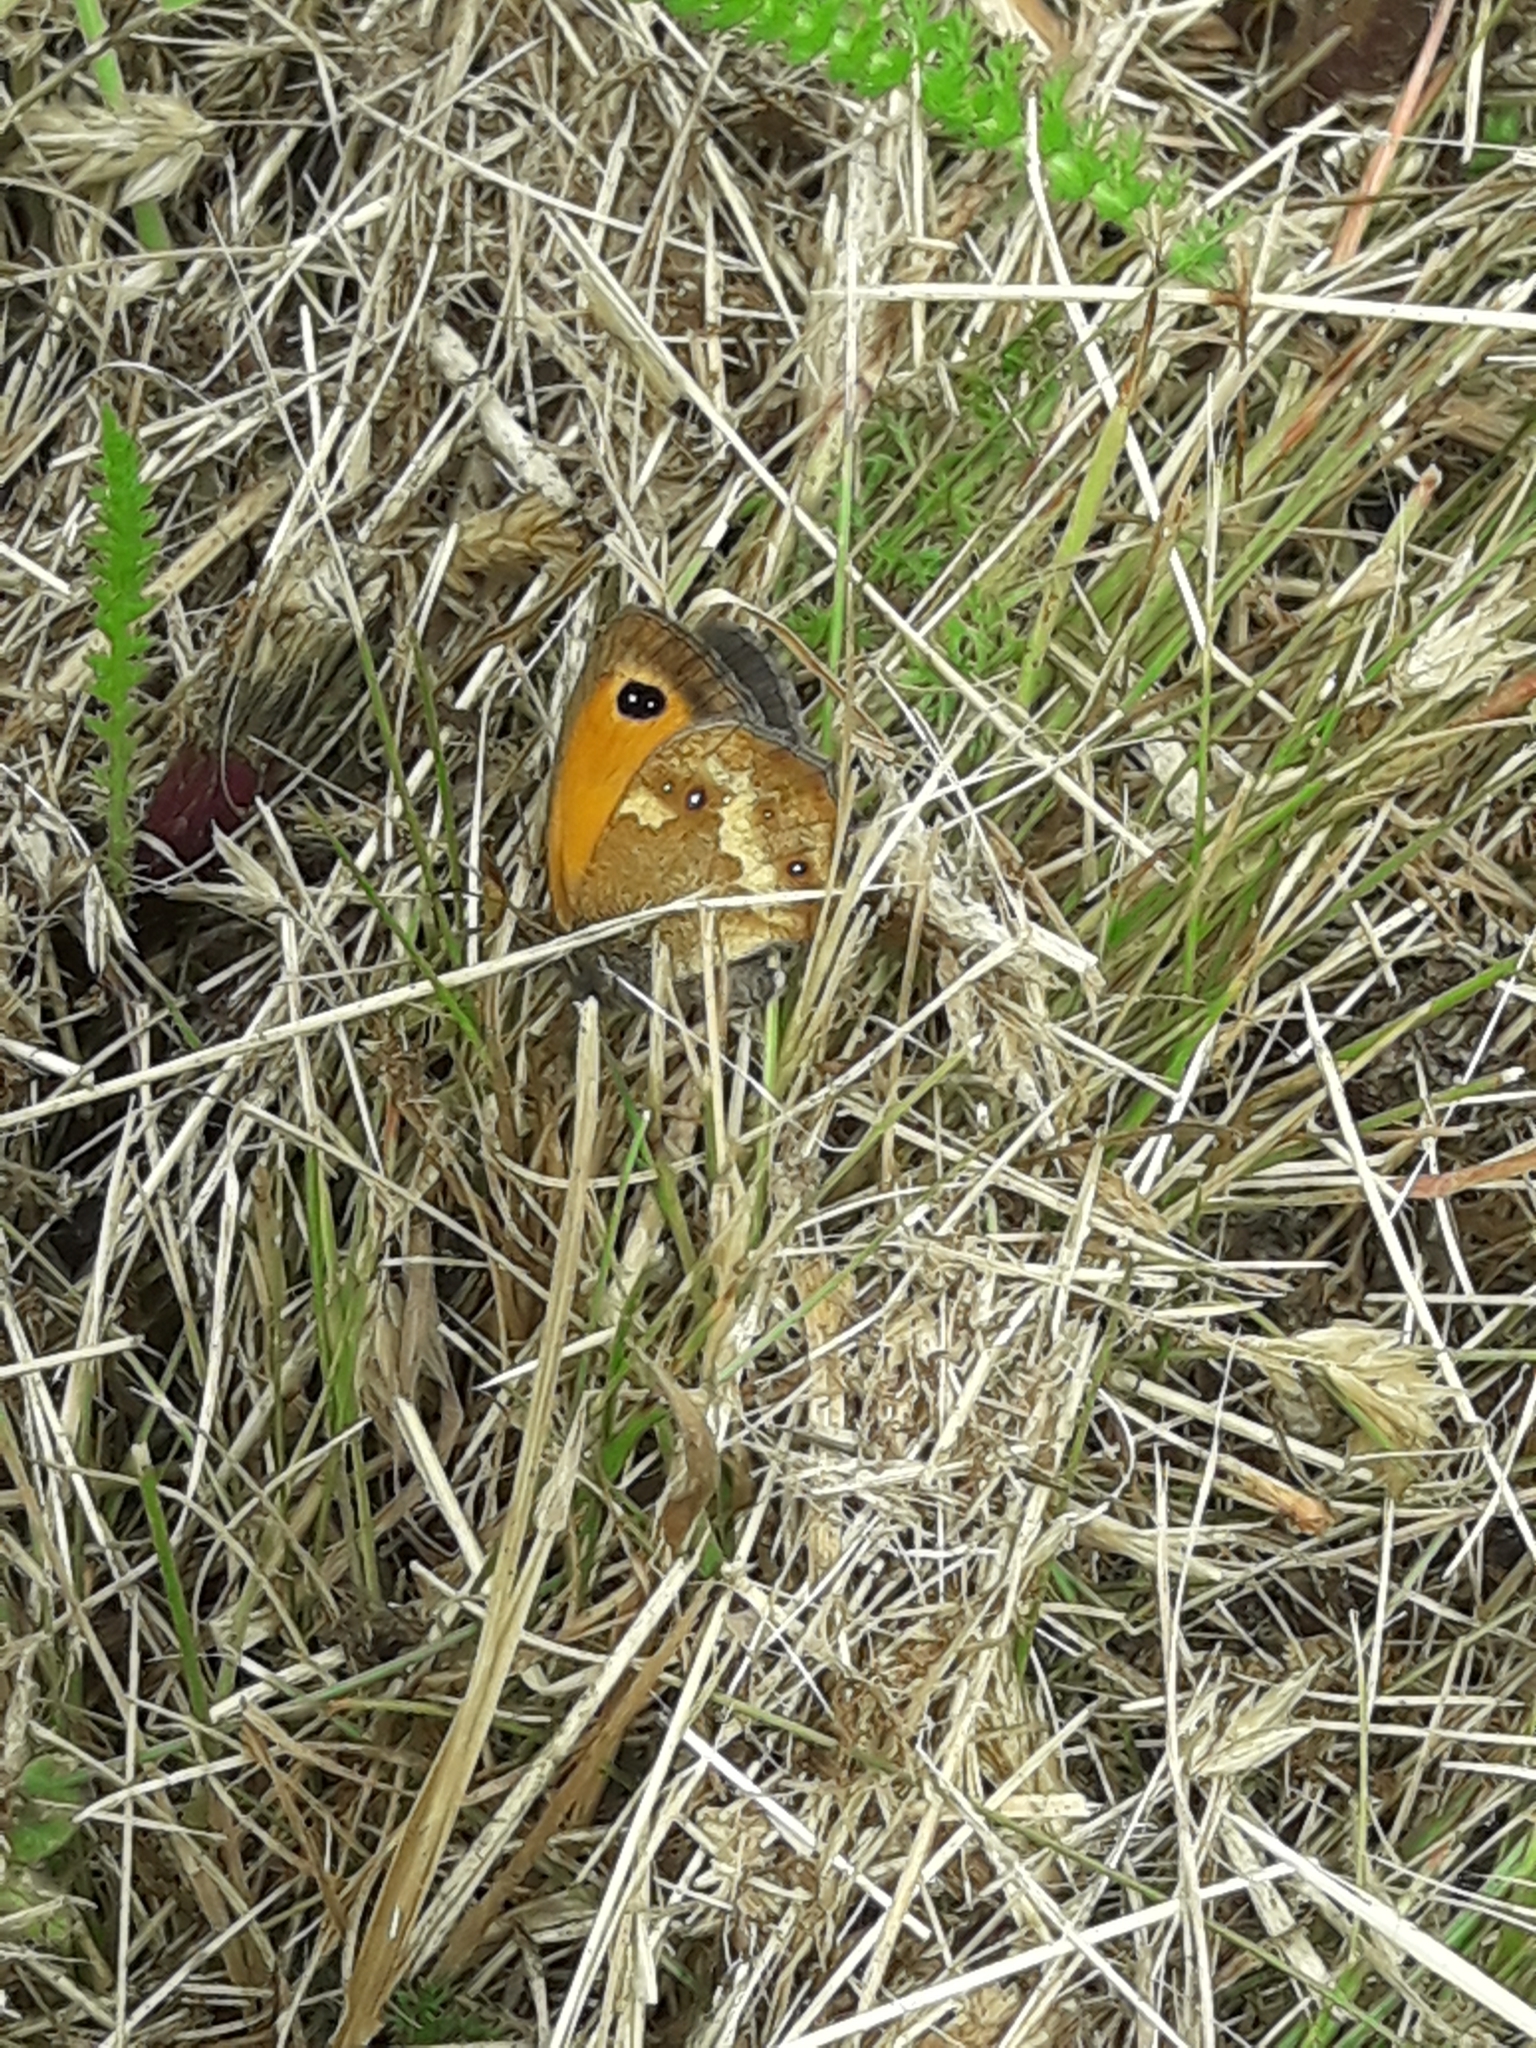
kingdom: Animalia
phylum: Arthropoda
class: Insecta
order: Lepidoptera
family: Nymphalidae
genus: Pyronia
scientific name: Pyronia tithonus
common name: Gatekeeper
